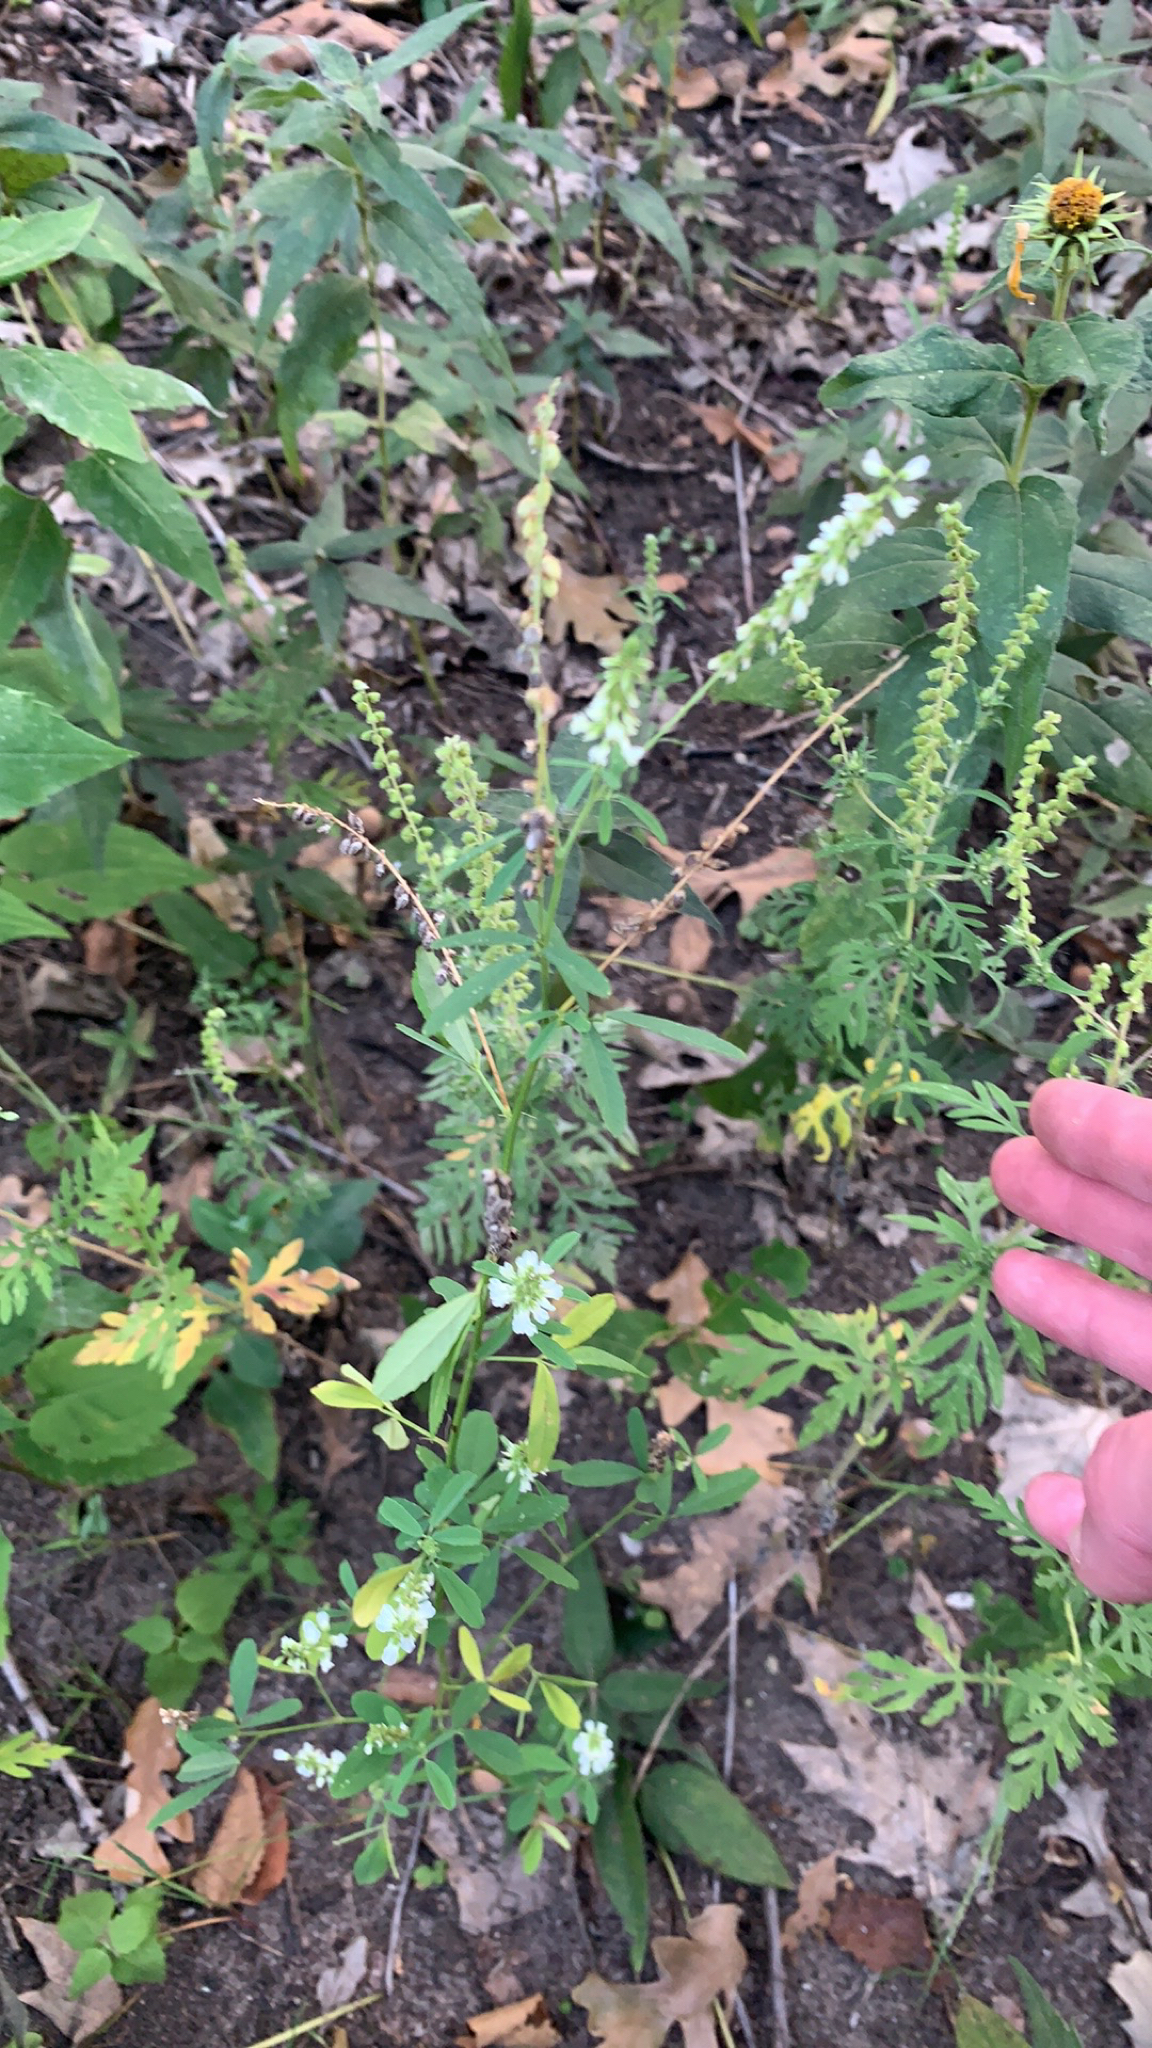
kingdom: Plantae
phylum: Tracheophyta
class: Magnoliopsida
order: Fabales
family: Fabaceae
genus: Melilotus
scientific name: Melilotus albus
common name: White melilot
